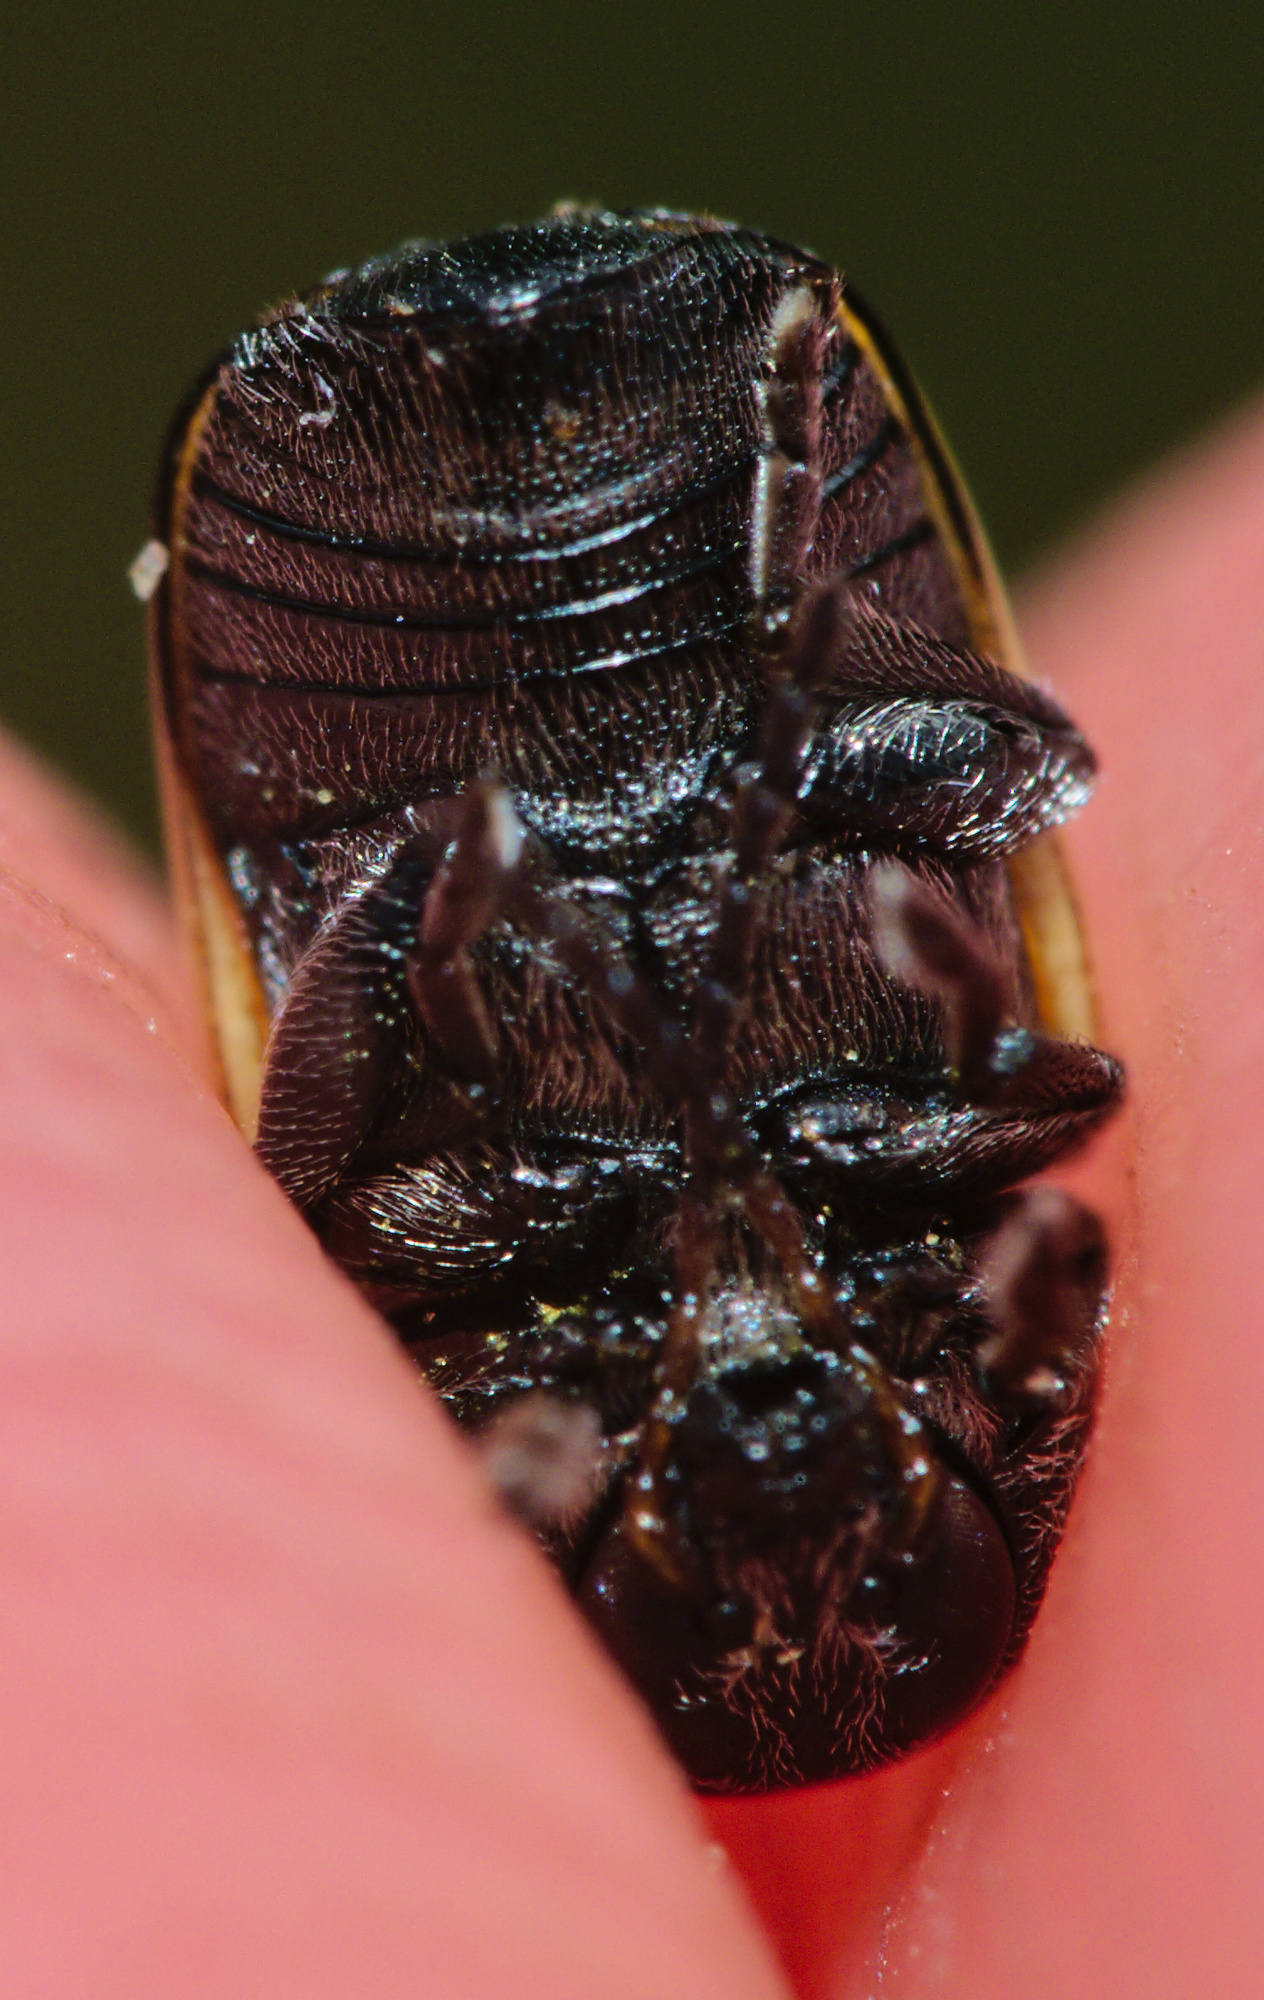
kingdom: Animalia
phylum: Arthropoda
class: Insecta
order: Coleoptera
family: Chrysomelidae
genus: Acalymma
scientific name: Acalymma vittatum
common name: Striped cucumber beetle
